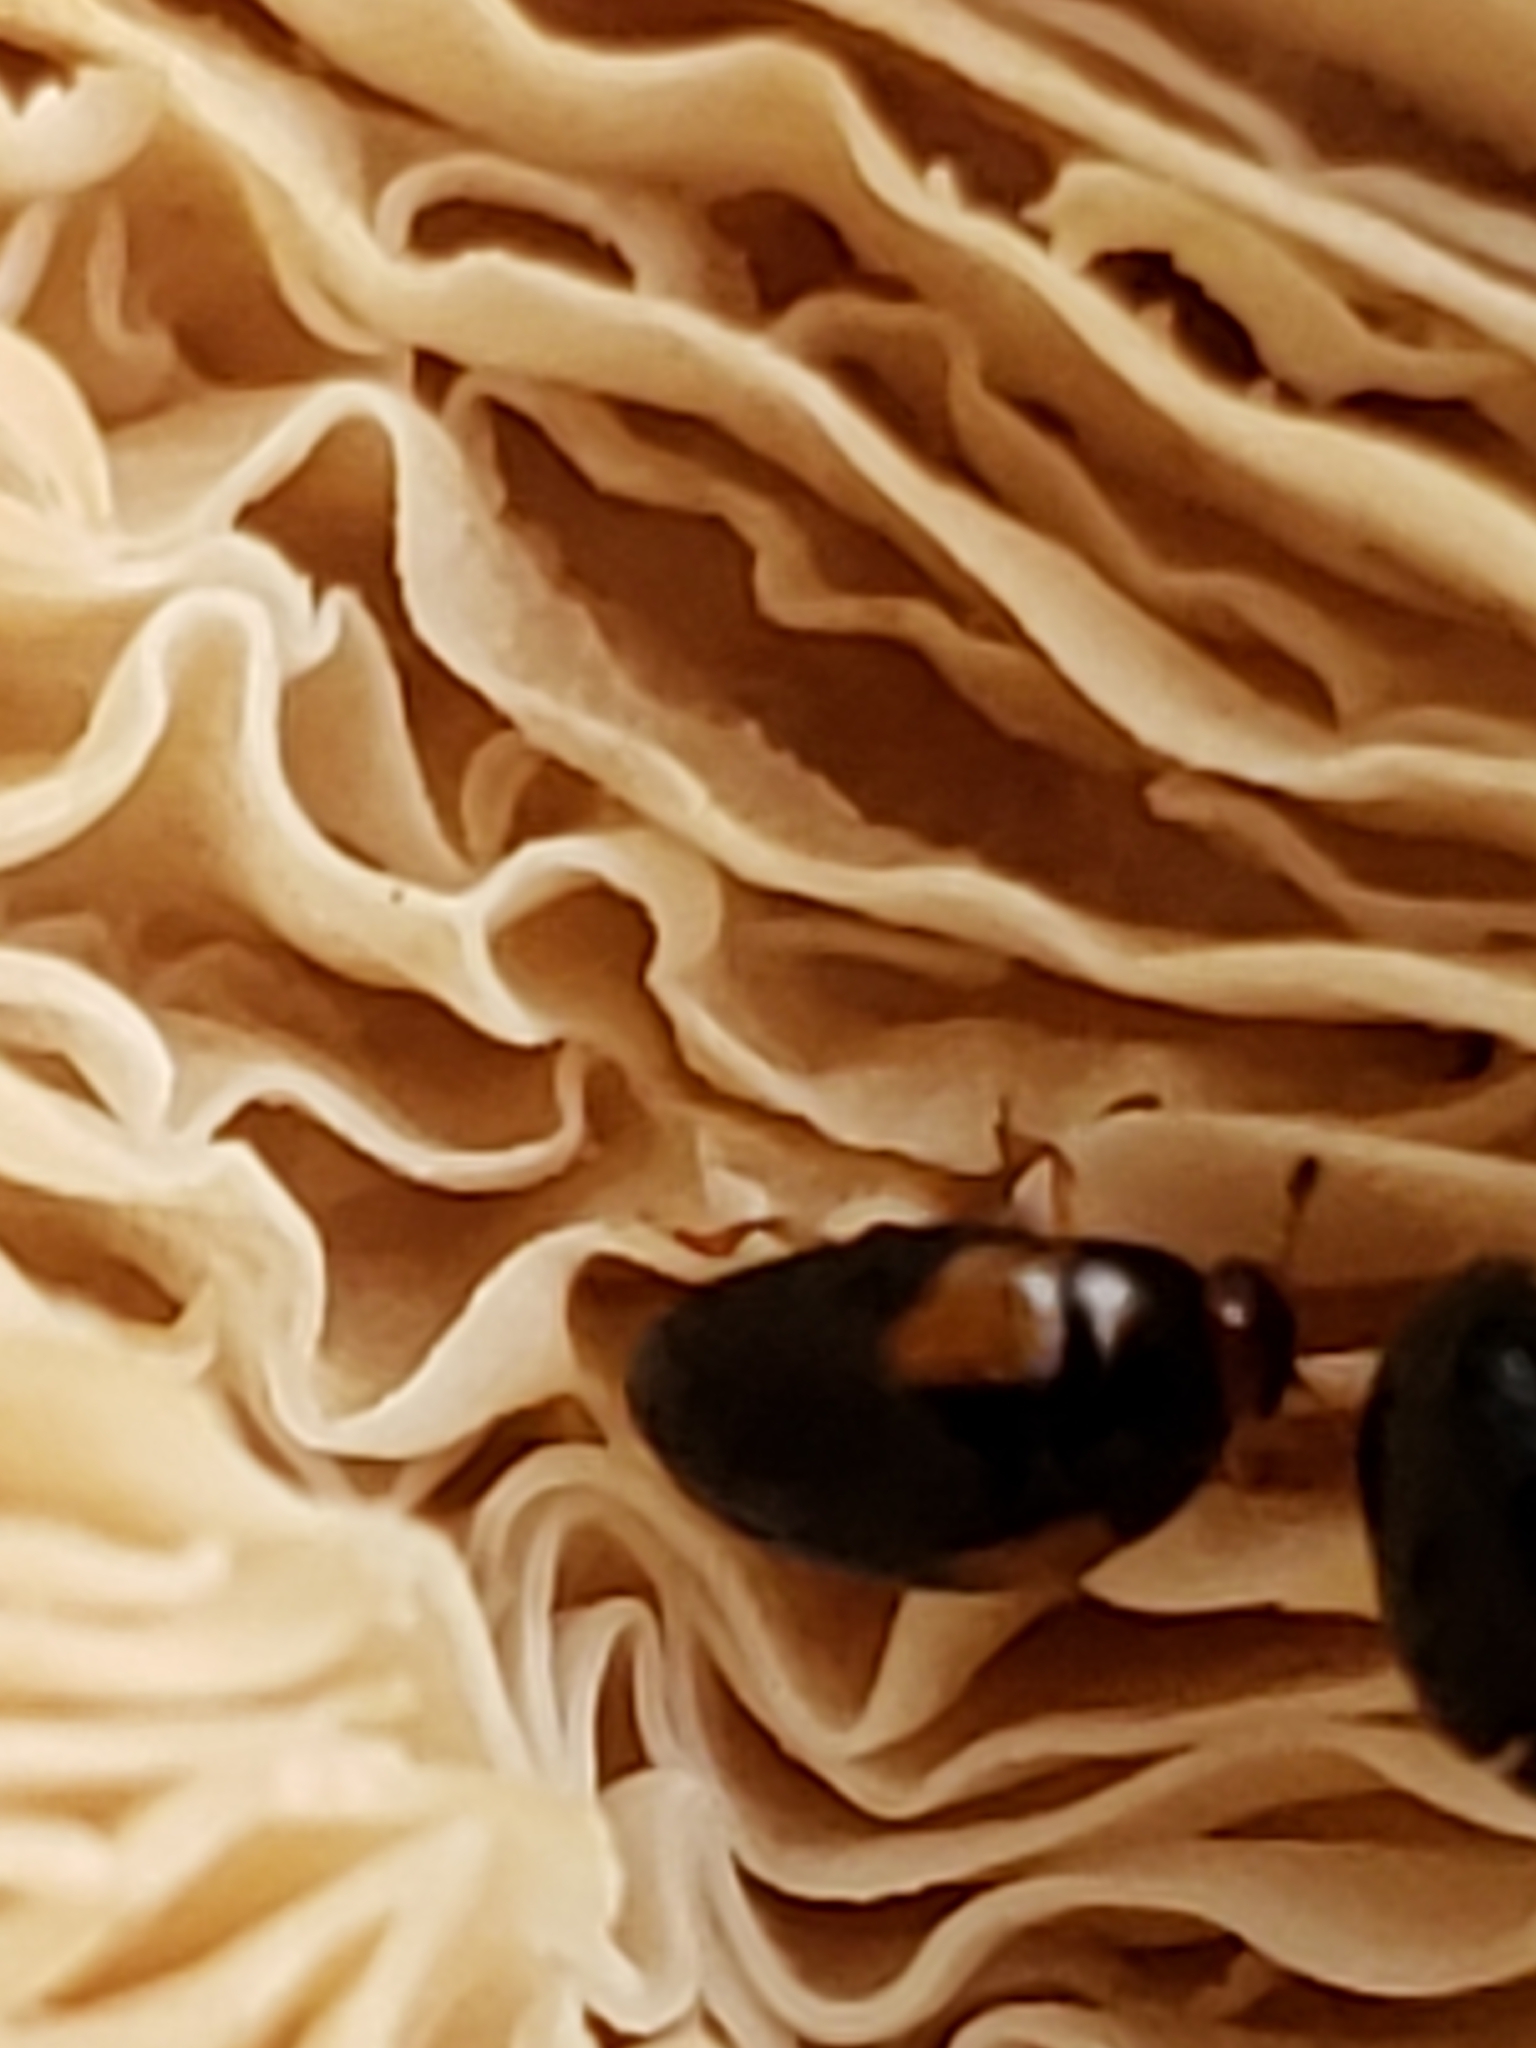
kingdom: Animalia
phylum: Arthropoda
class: Insecta
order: Coleoptera
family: Erotylidae
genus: Tritoma
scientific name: Tritoma humeralis
